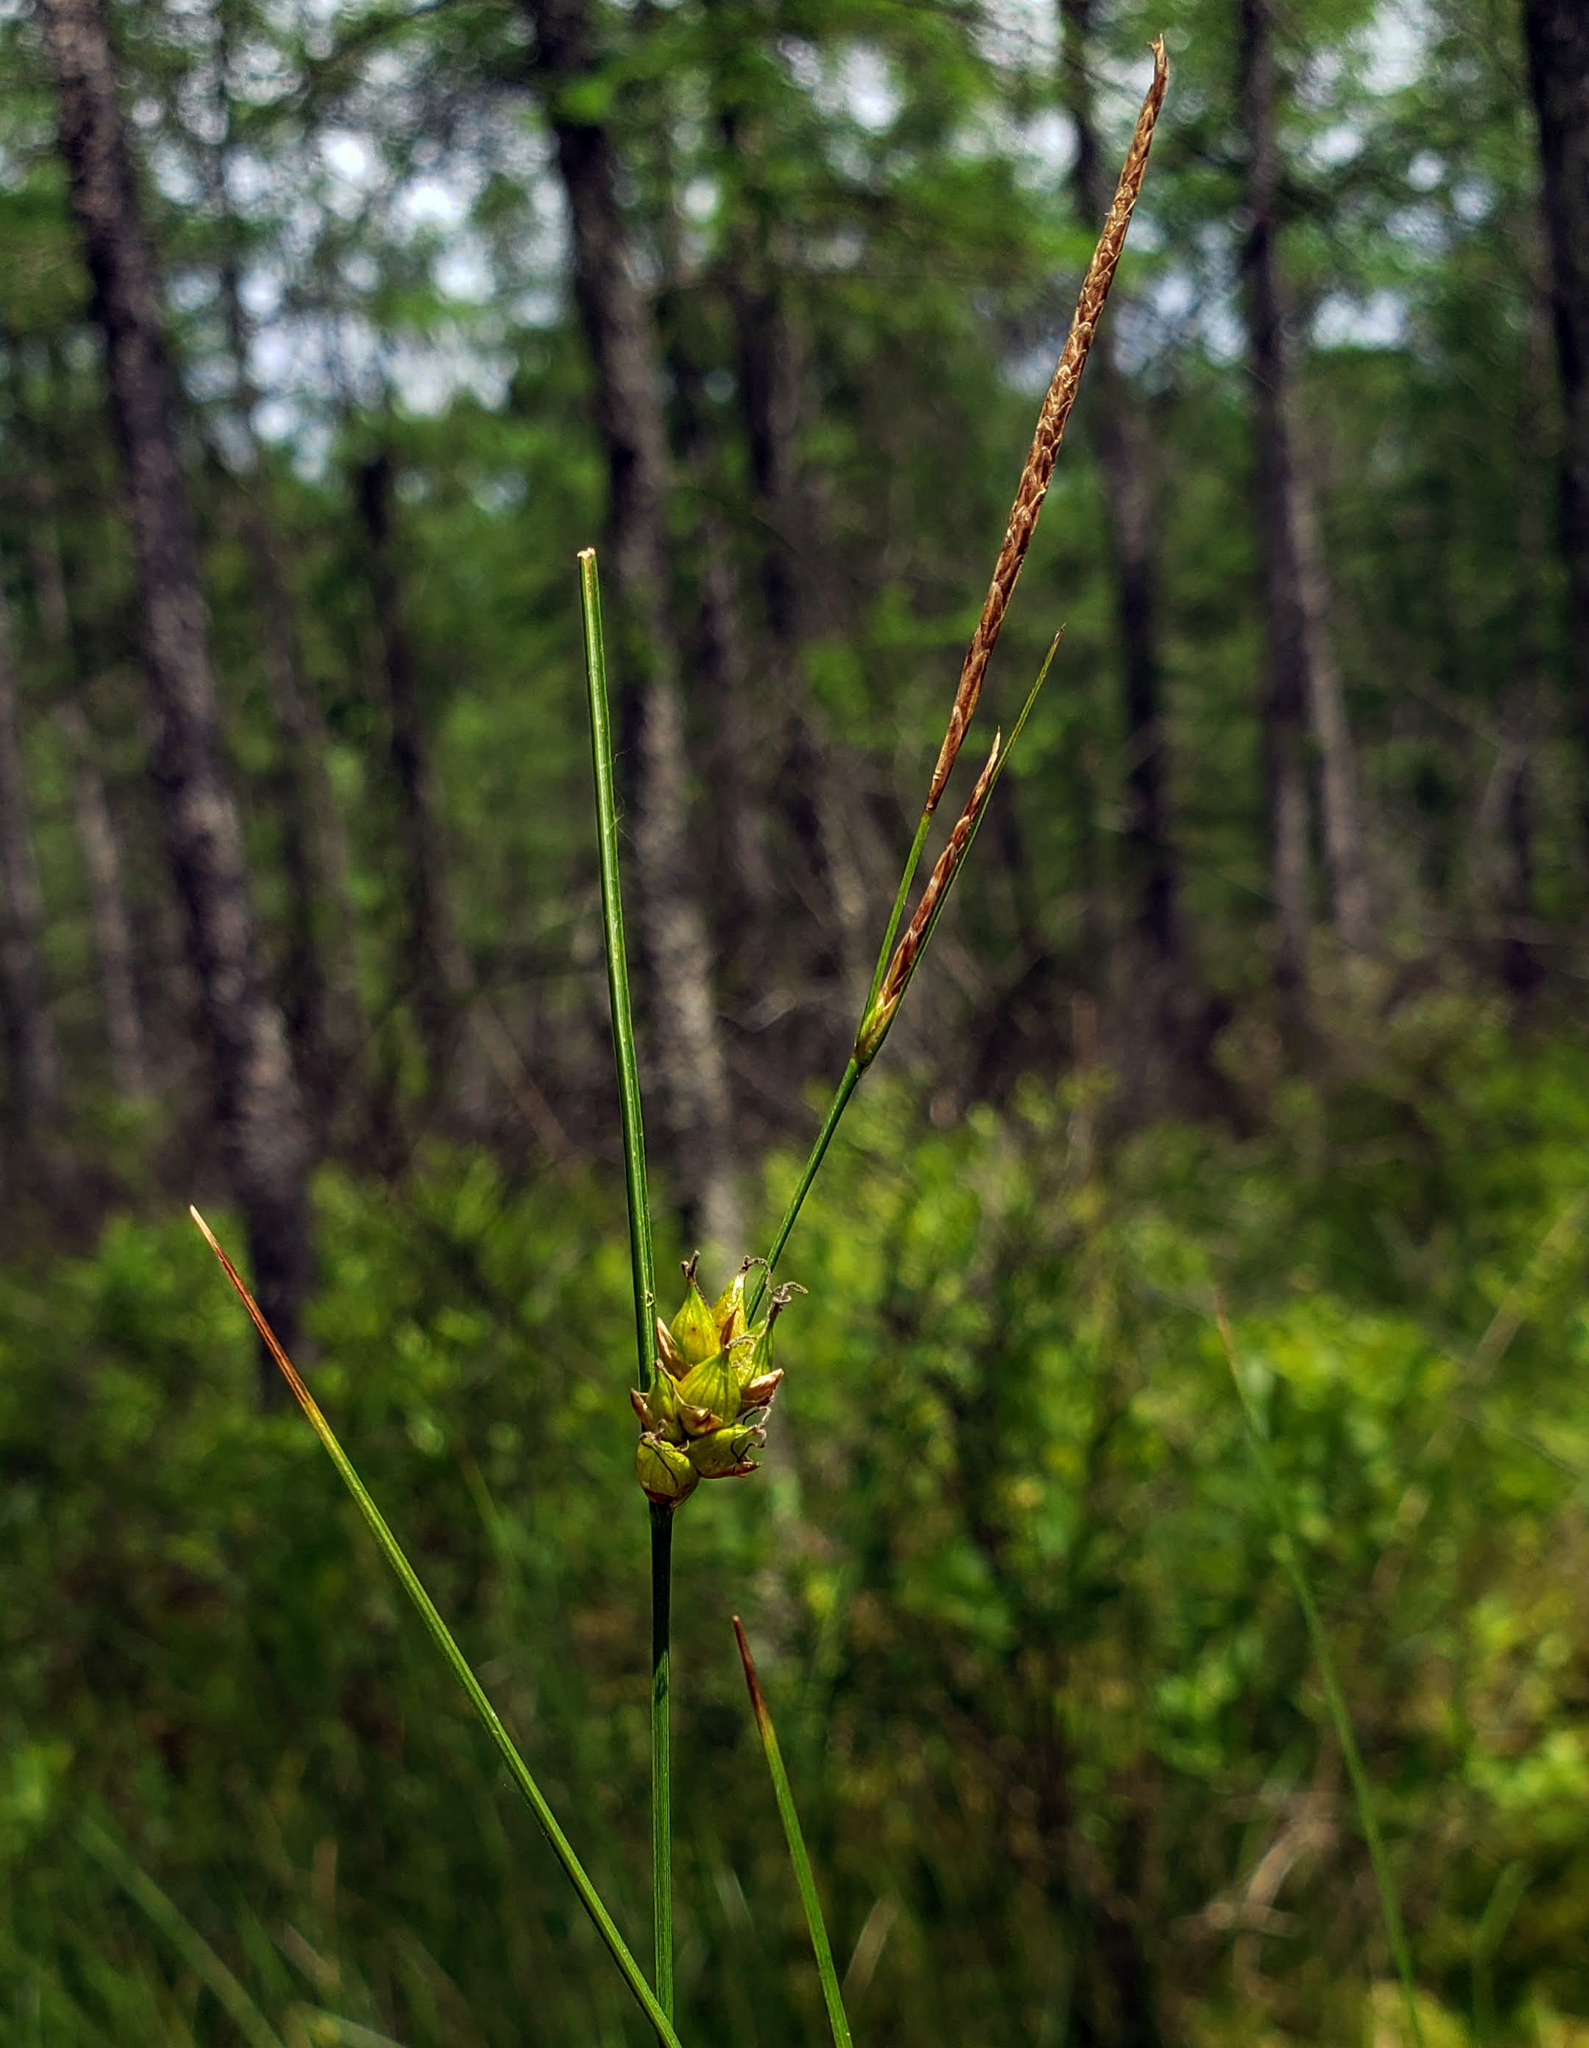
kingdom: Plantae
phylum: Tracheophyta
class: Liliopsida
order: Poales
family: Cyperaceae
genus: Carex
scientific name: Carex oligosperma
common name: Few-seed sedge
